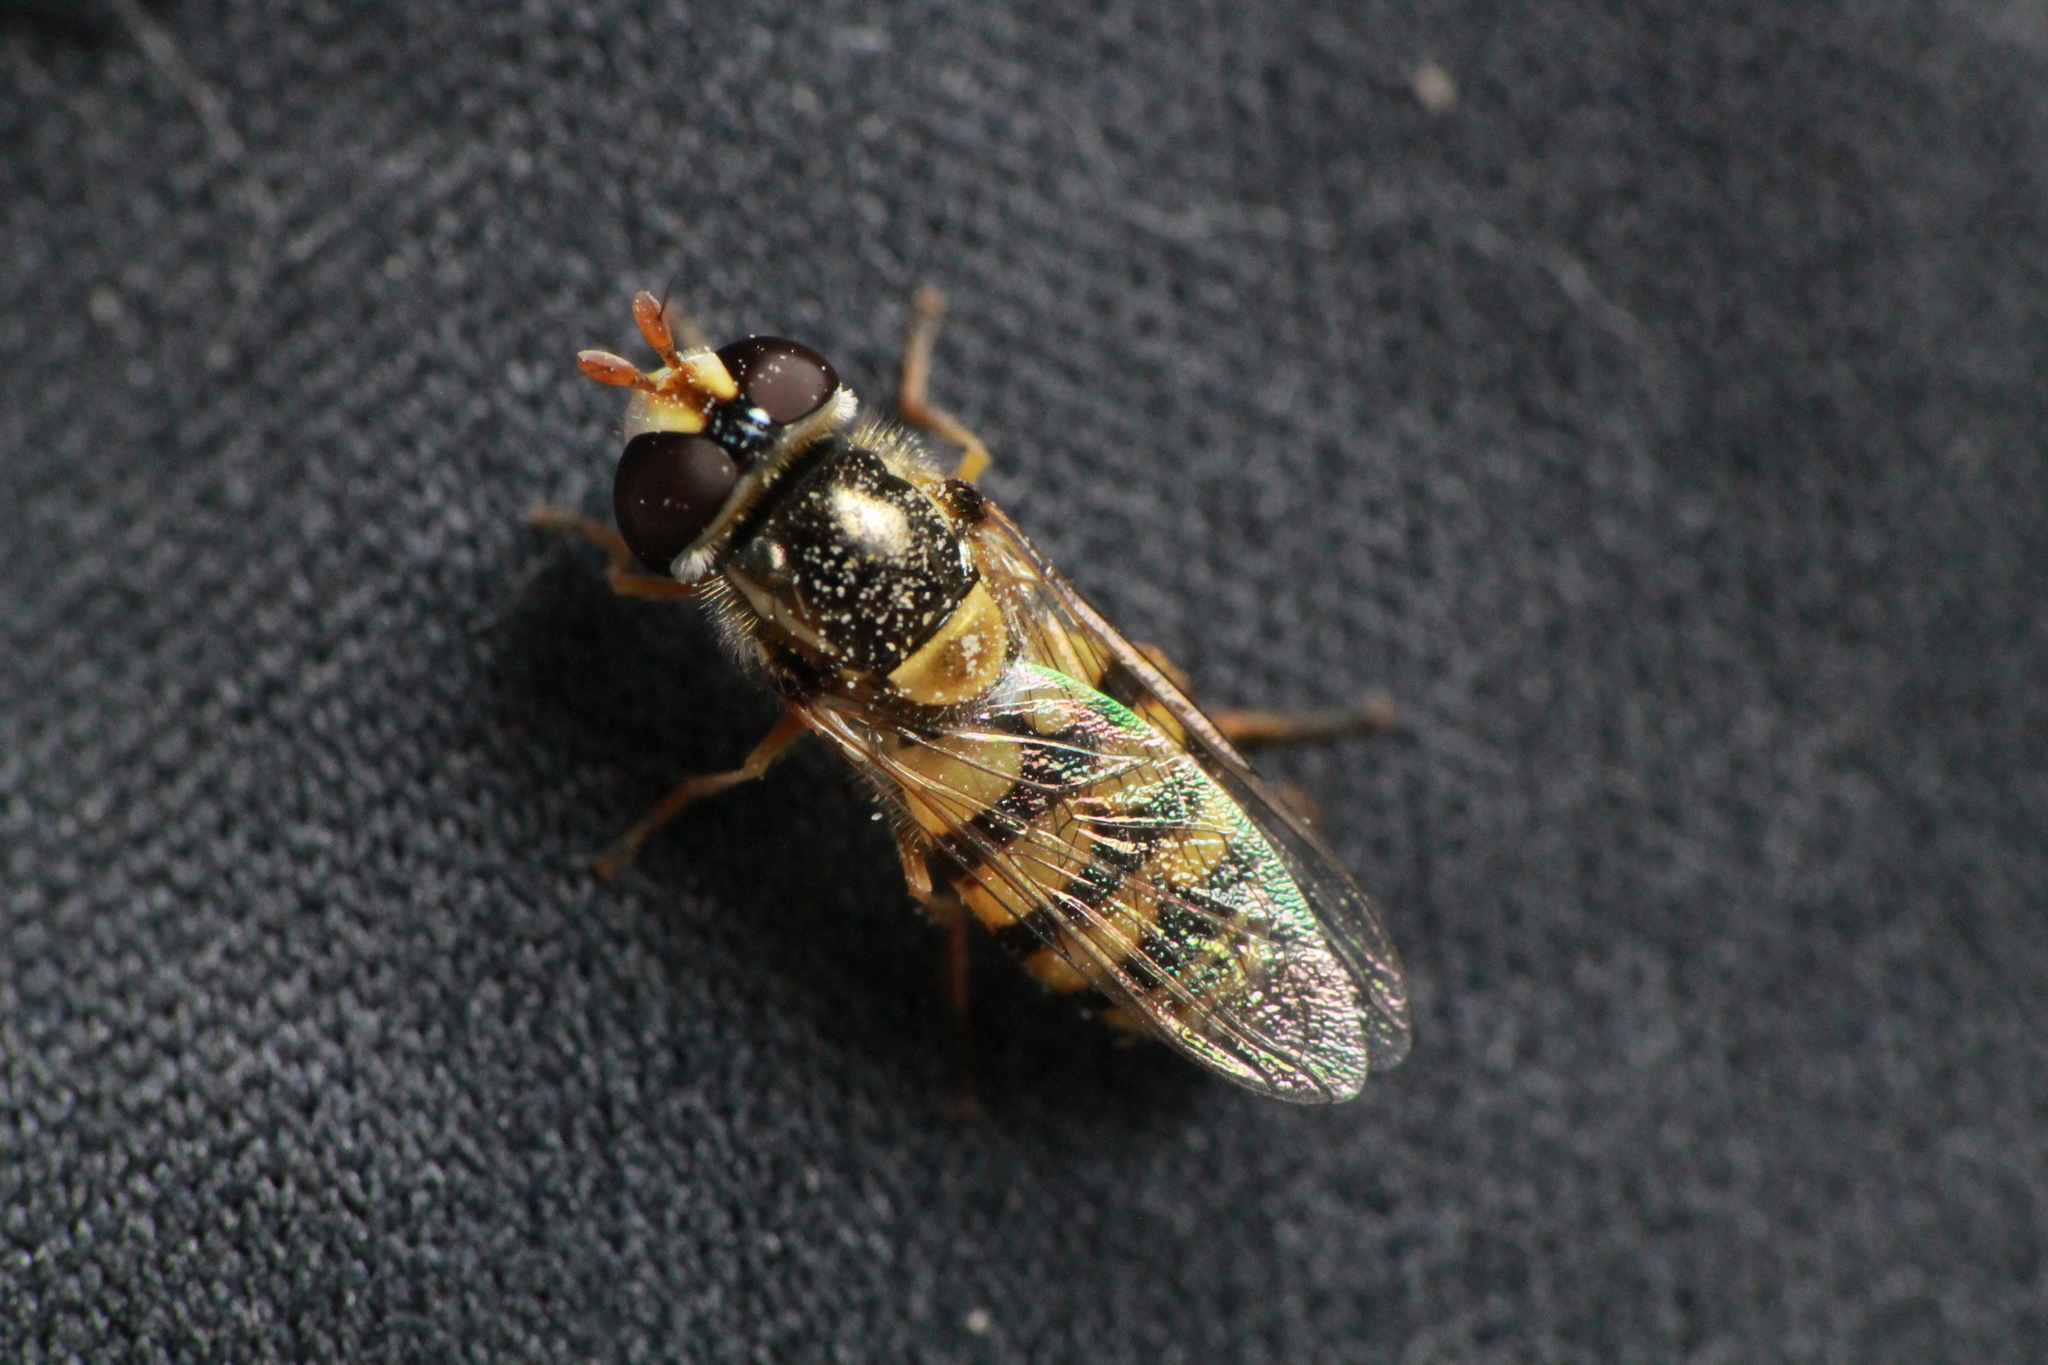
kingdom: Animalia
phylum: Arthropoda
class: Insecta
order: Diptera
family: Syrphidae
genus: Simosyrphus
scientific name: Simosyrphus grandicornis
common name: Hoverfly
